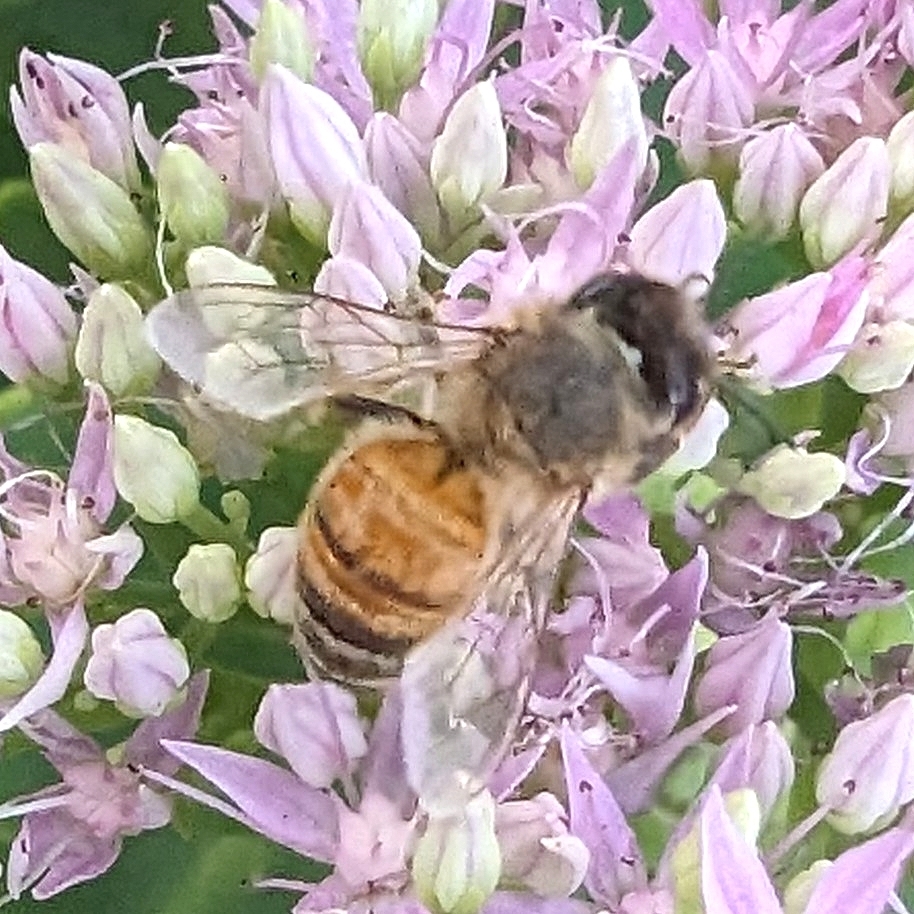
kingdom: Animalia
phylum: Arthropoda
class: Insecta
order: Hymenoptera
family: Apidae
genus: Apis
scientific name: Apis mellifera
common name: Honey bee
